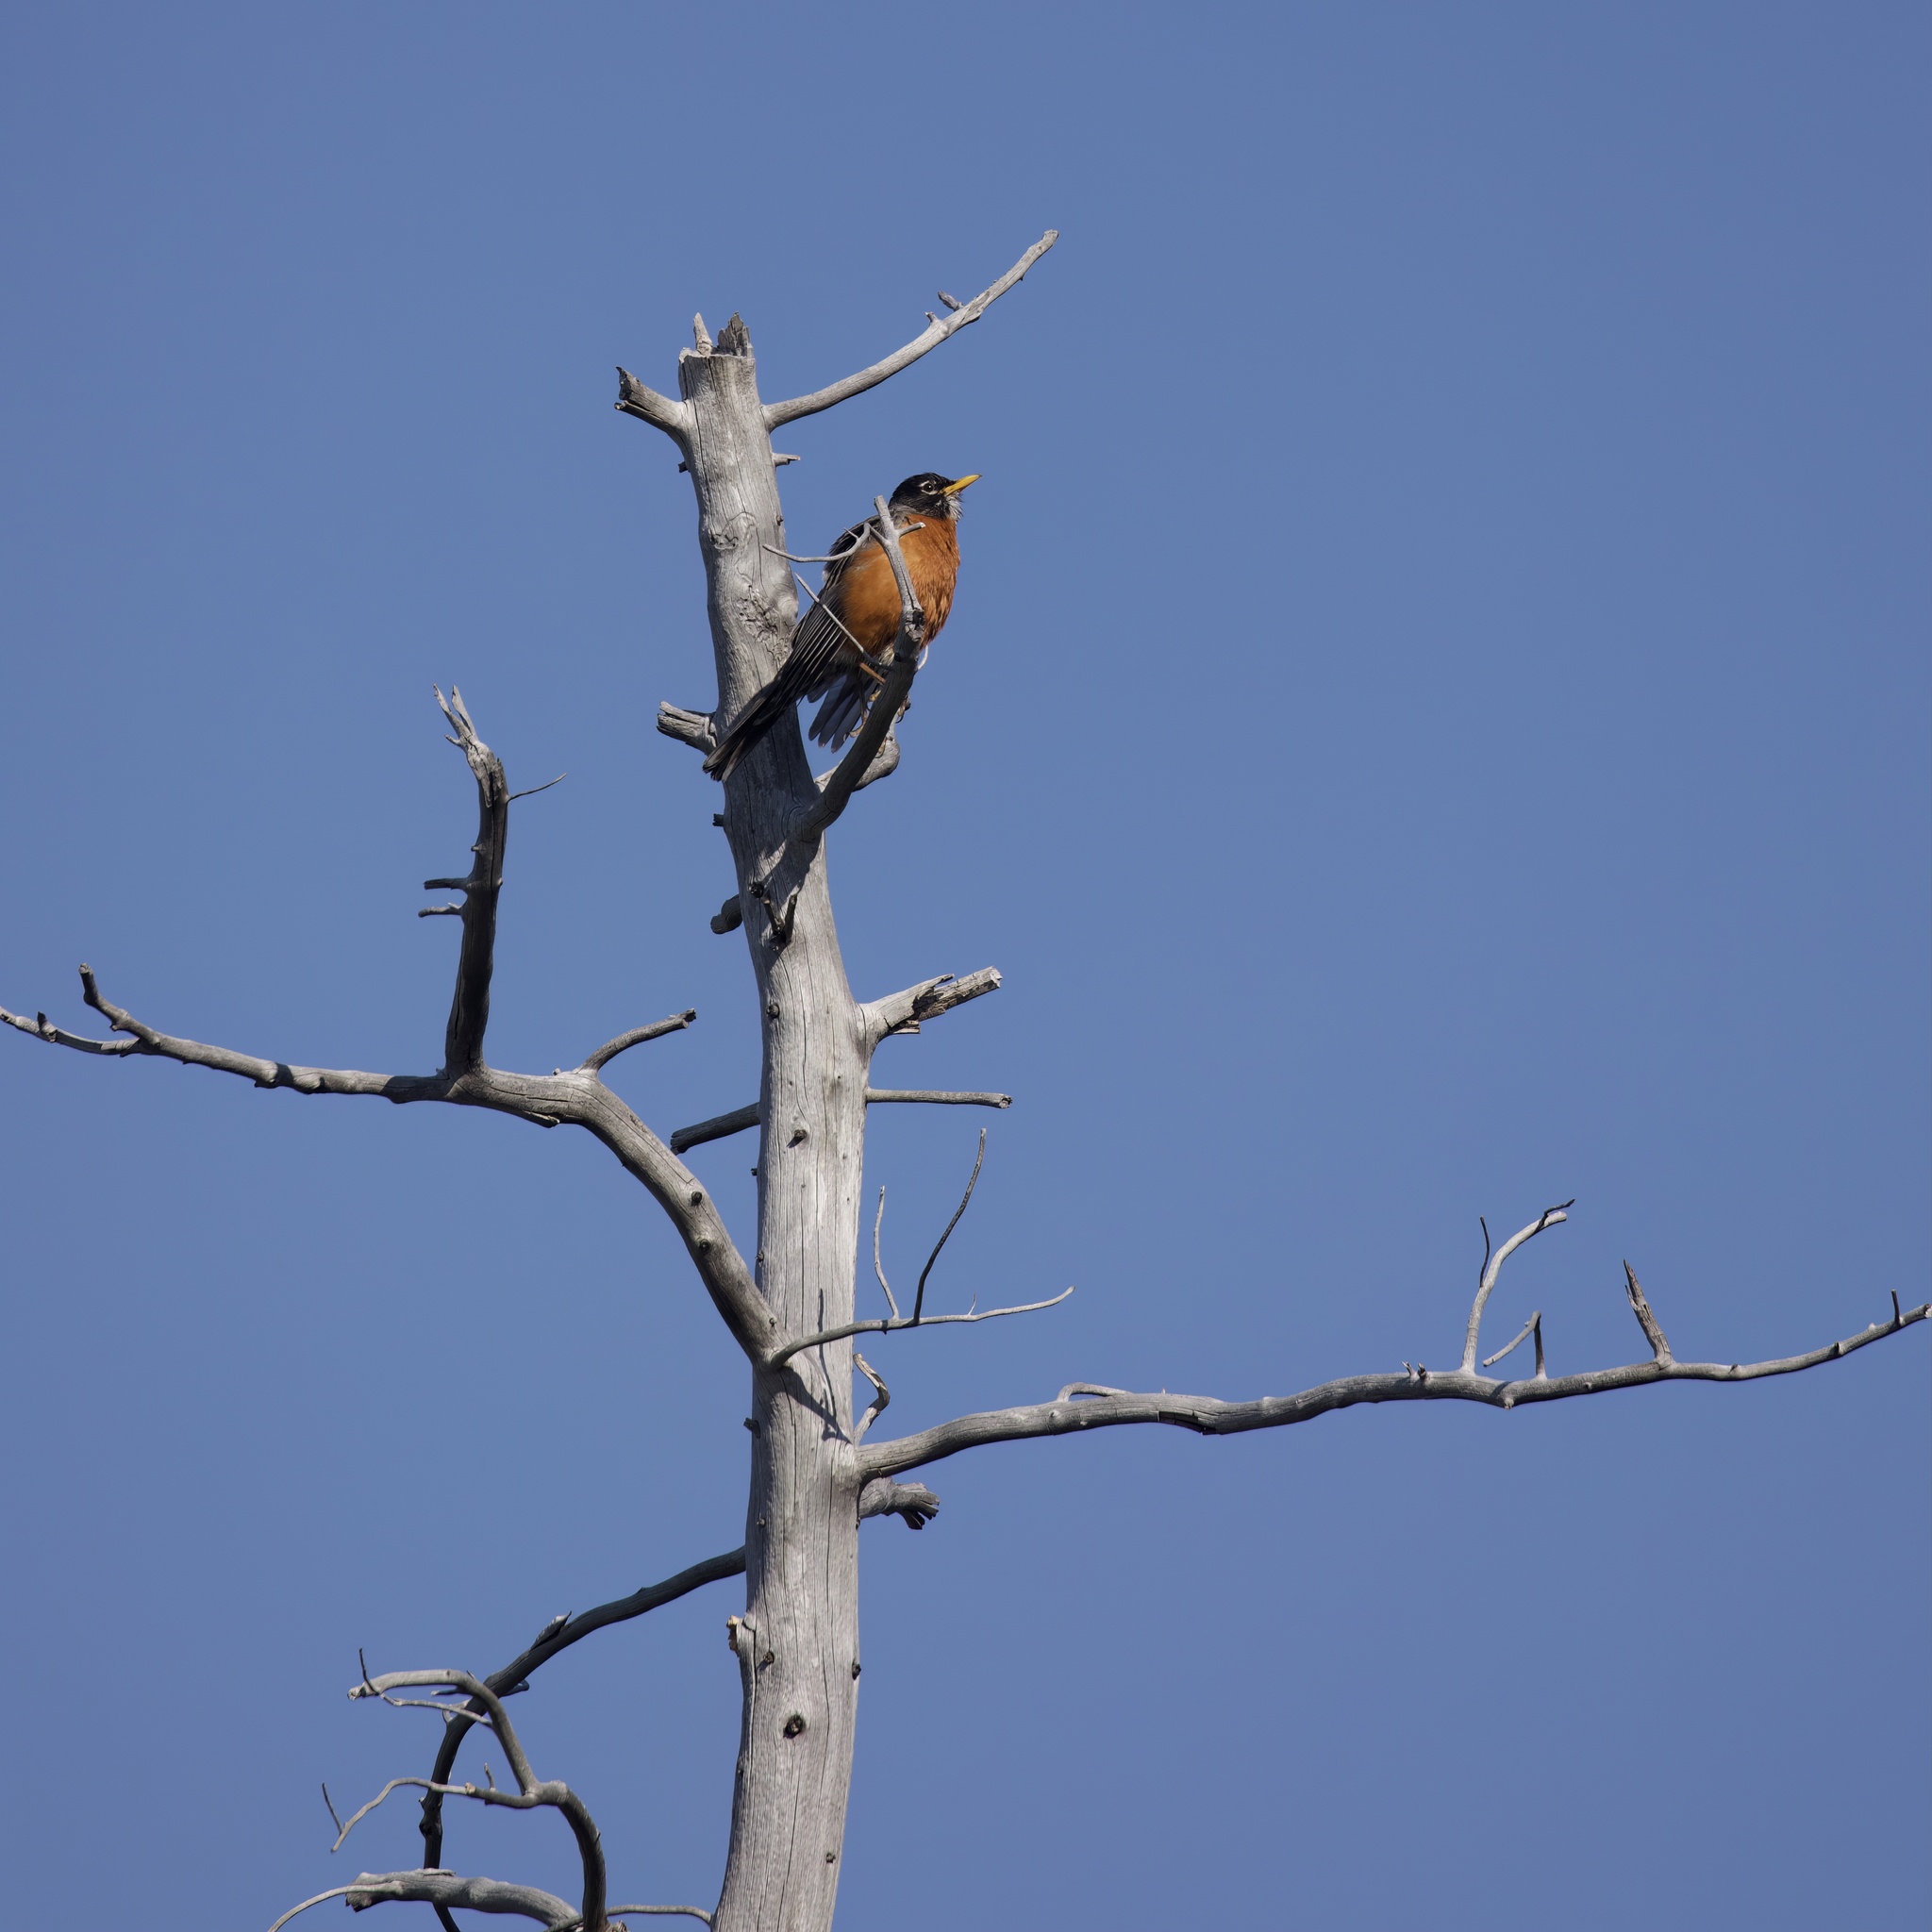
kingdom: Animalia
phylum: Chordata
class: Aves
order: Passeriformes
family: Turdidae
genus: Turdus
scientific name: Turdus migratorius
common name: American robin
